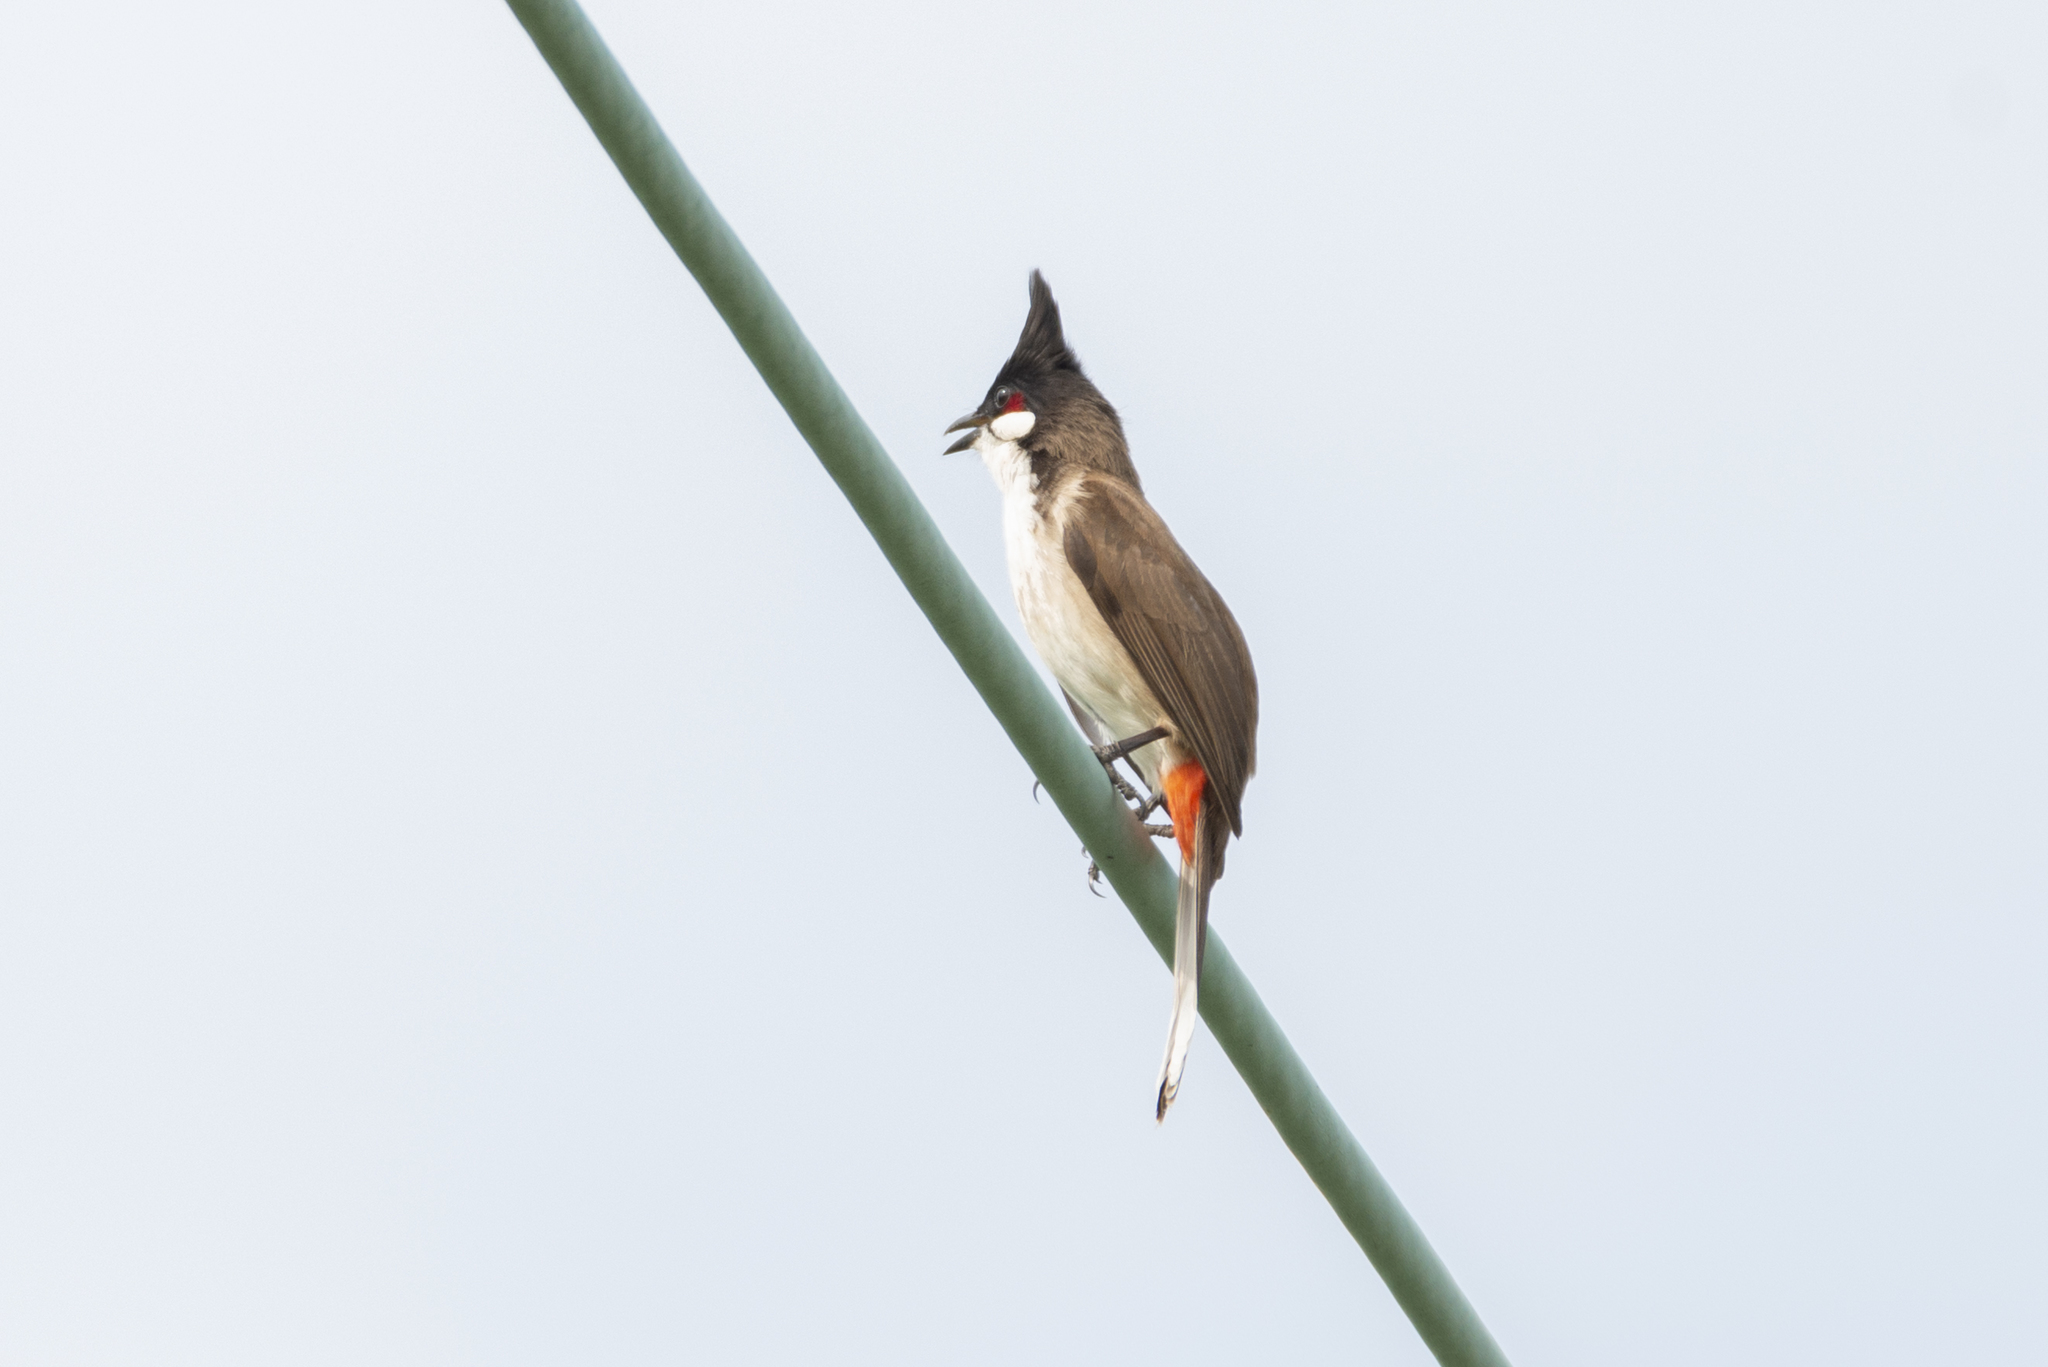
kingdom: Animalia
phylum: Chordata
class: Aves
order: Passeriformes
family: Pycnonotidae
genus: Pycnonotus
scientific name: Pycnonotus jocosus
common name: Red-whiskered bulbul
